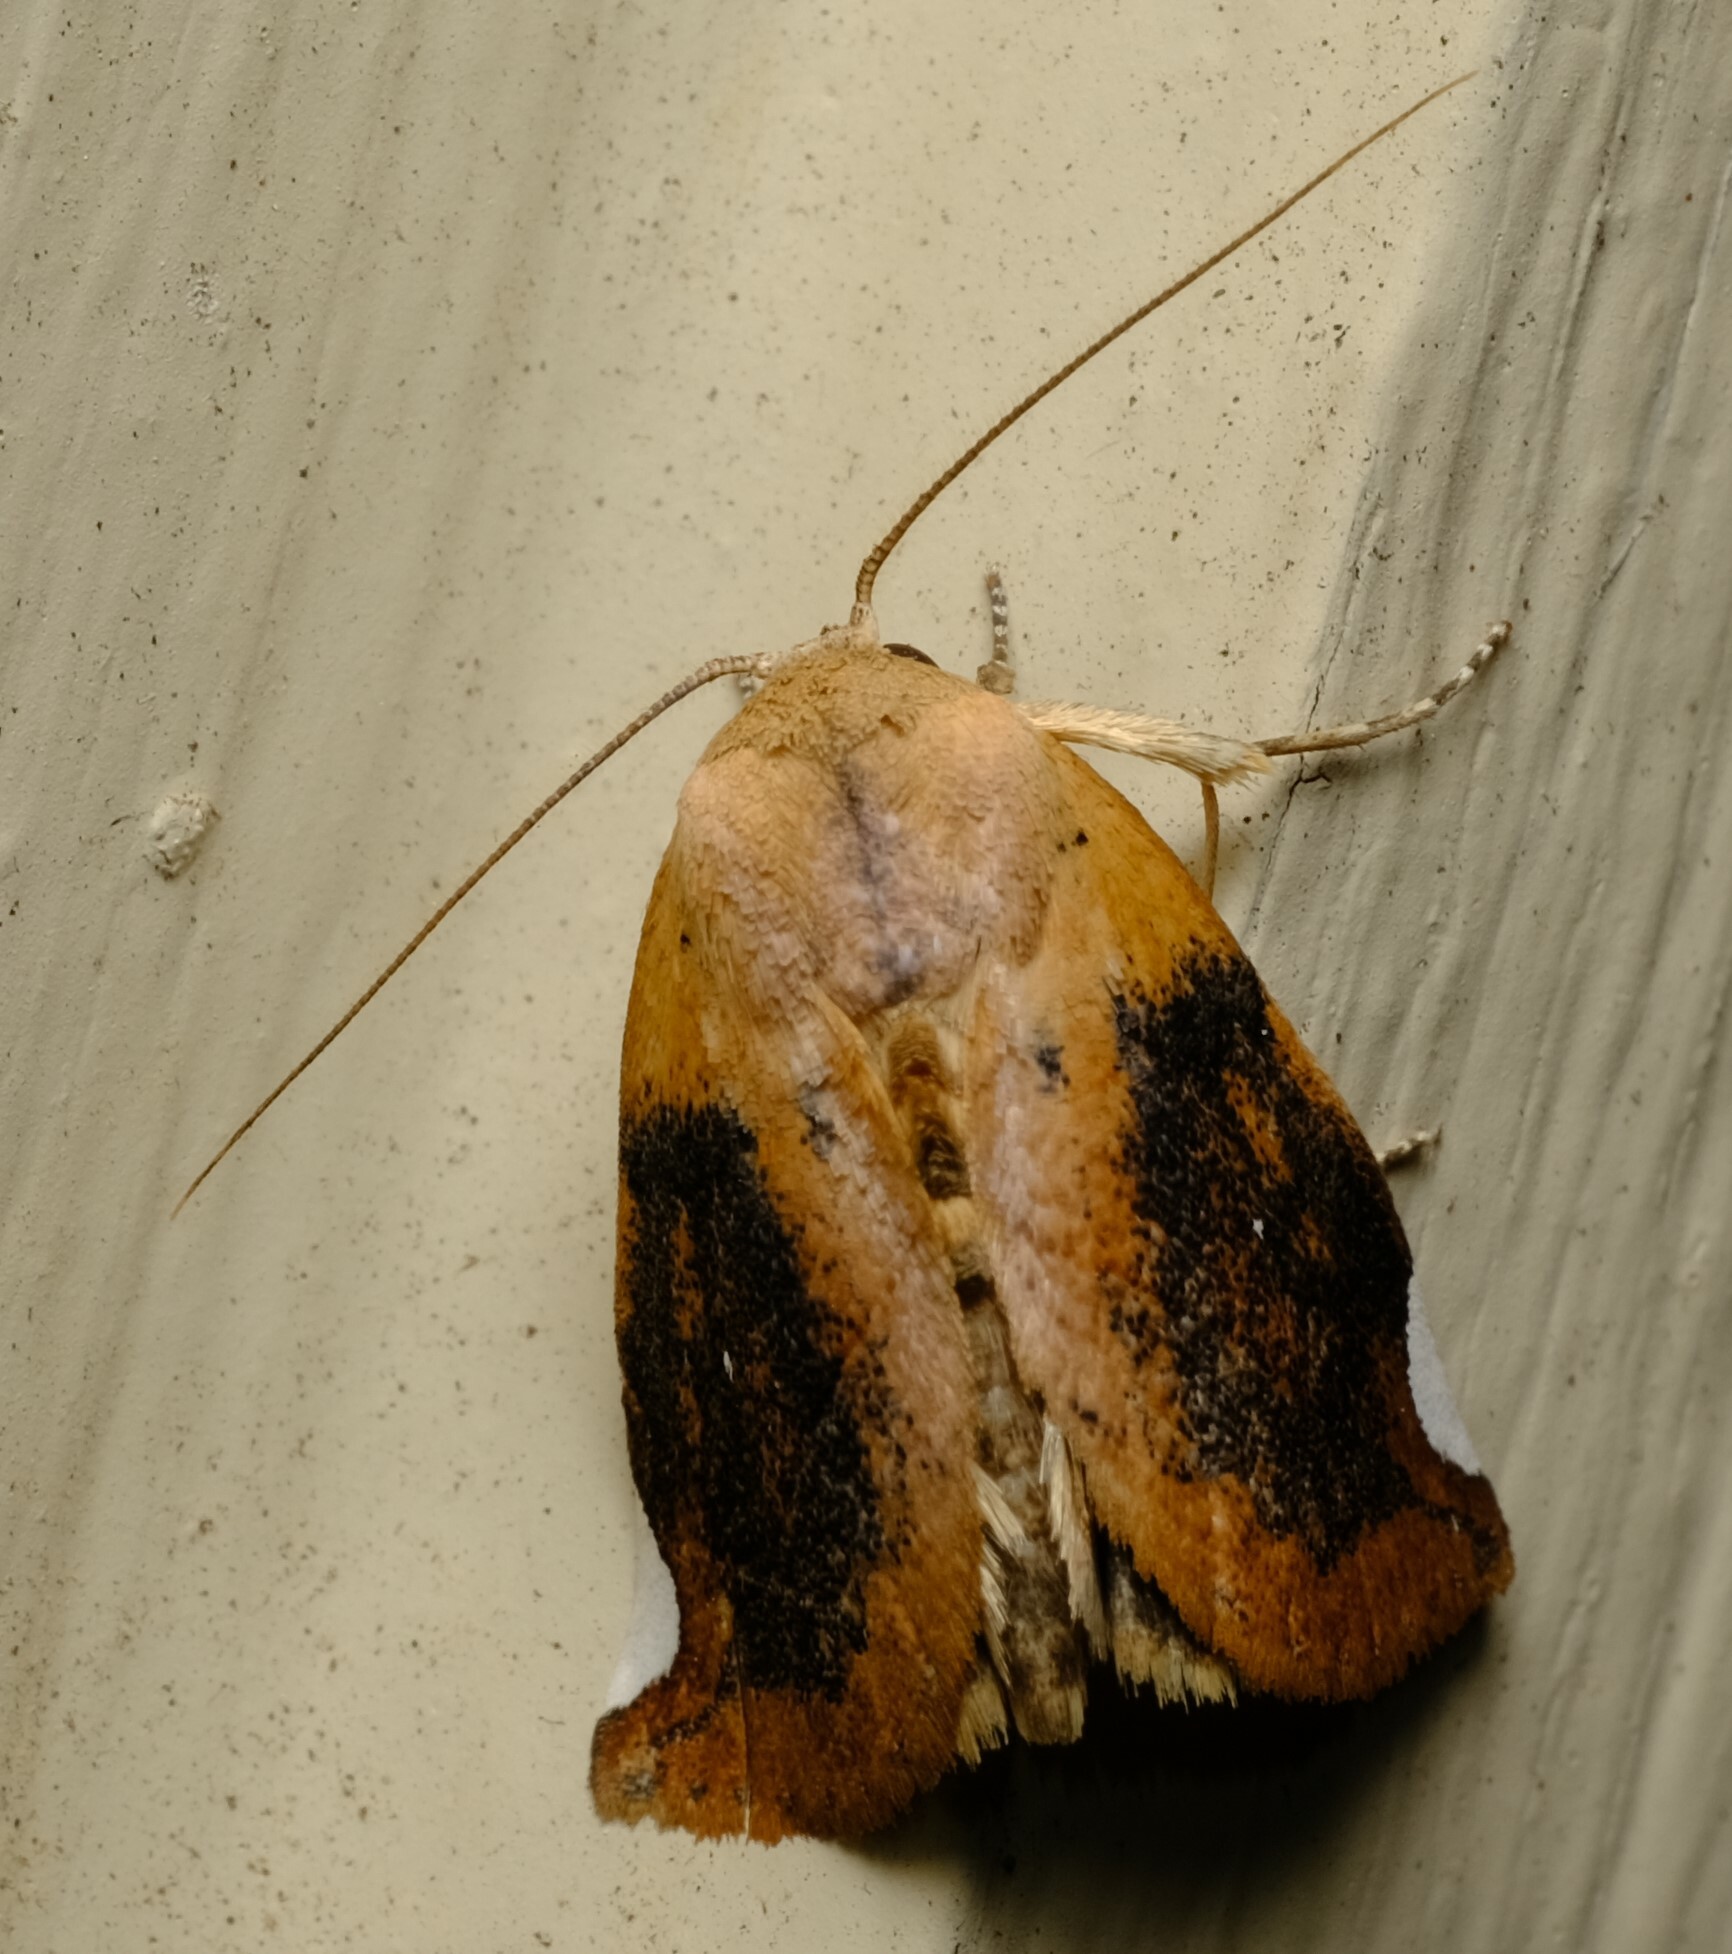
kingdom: Animalia
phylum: Arthropoda
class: Insecta
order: Lepidoptera
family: Nolidae
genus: Negeta
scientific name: Negeta contrariata
